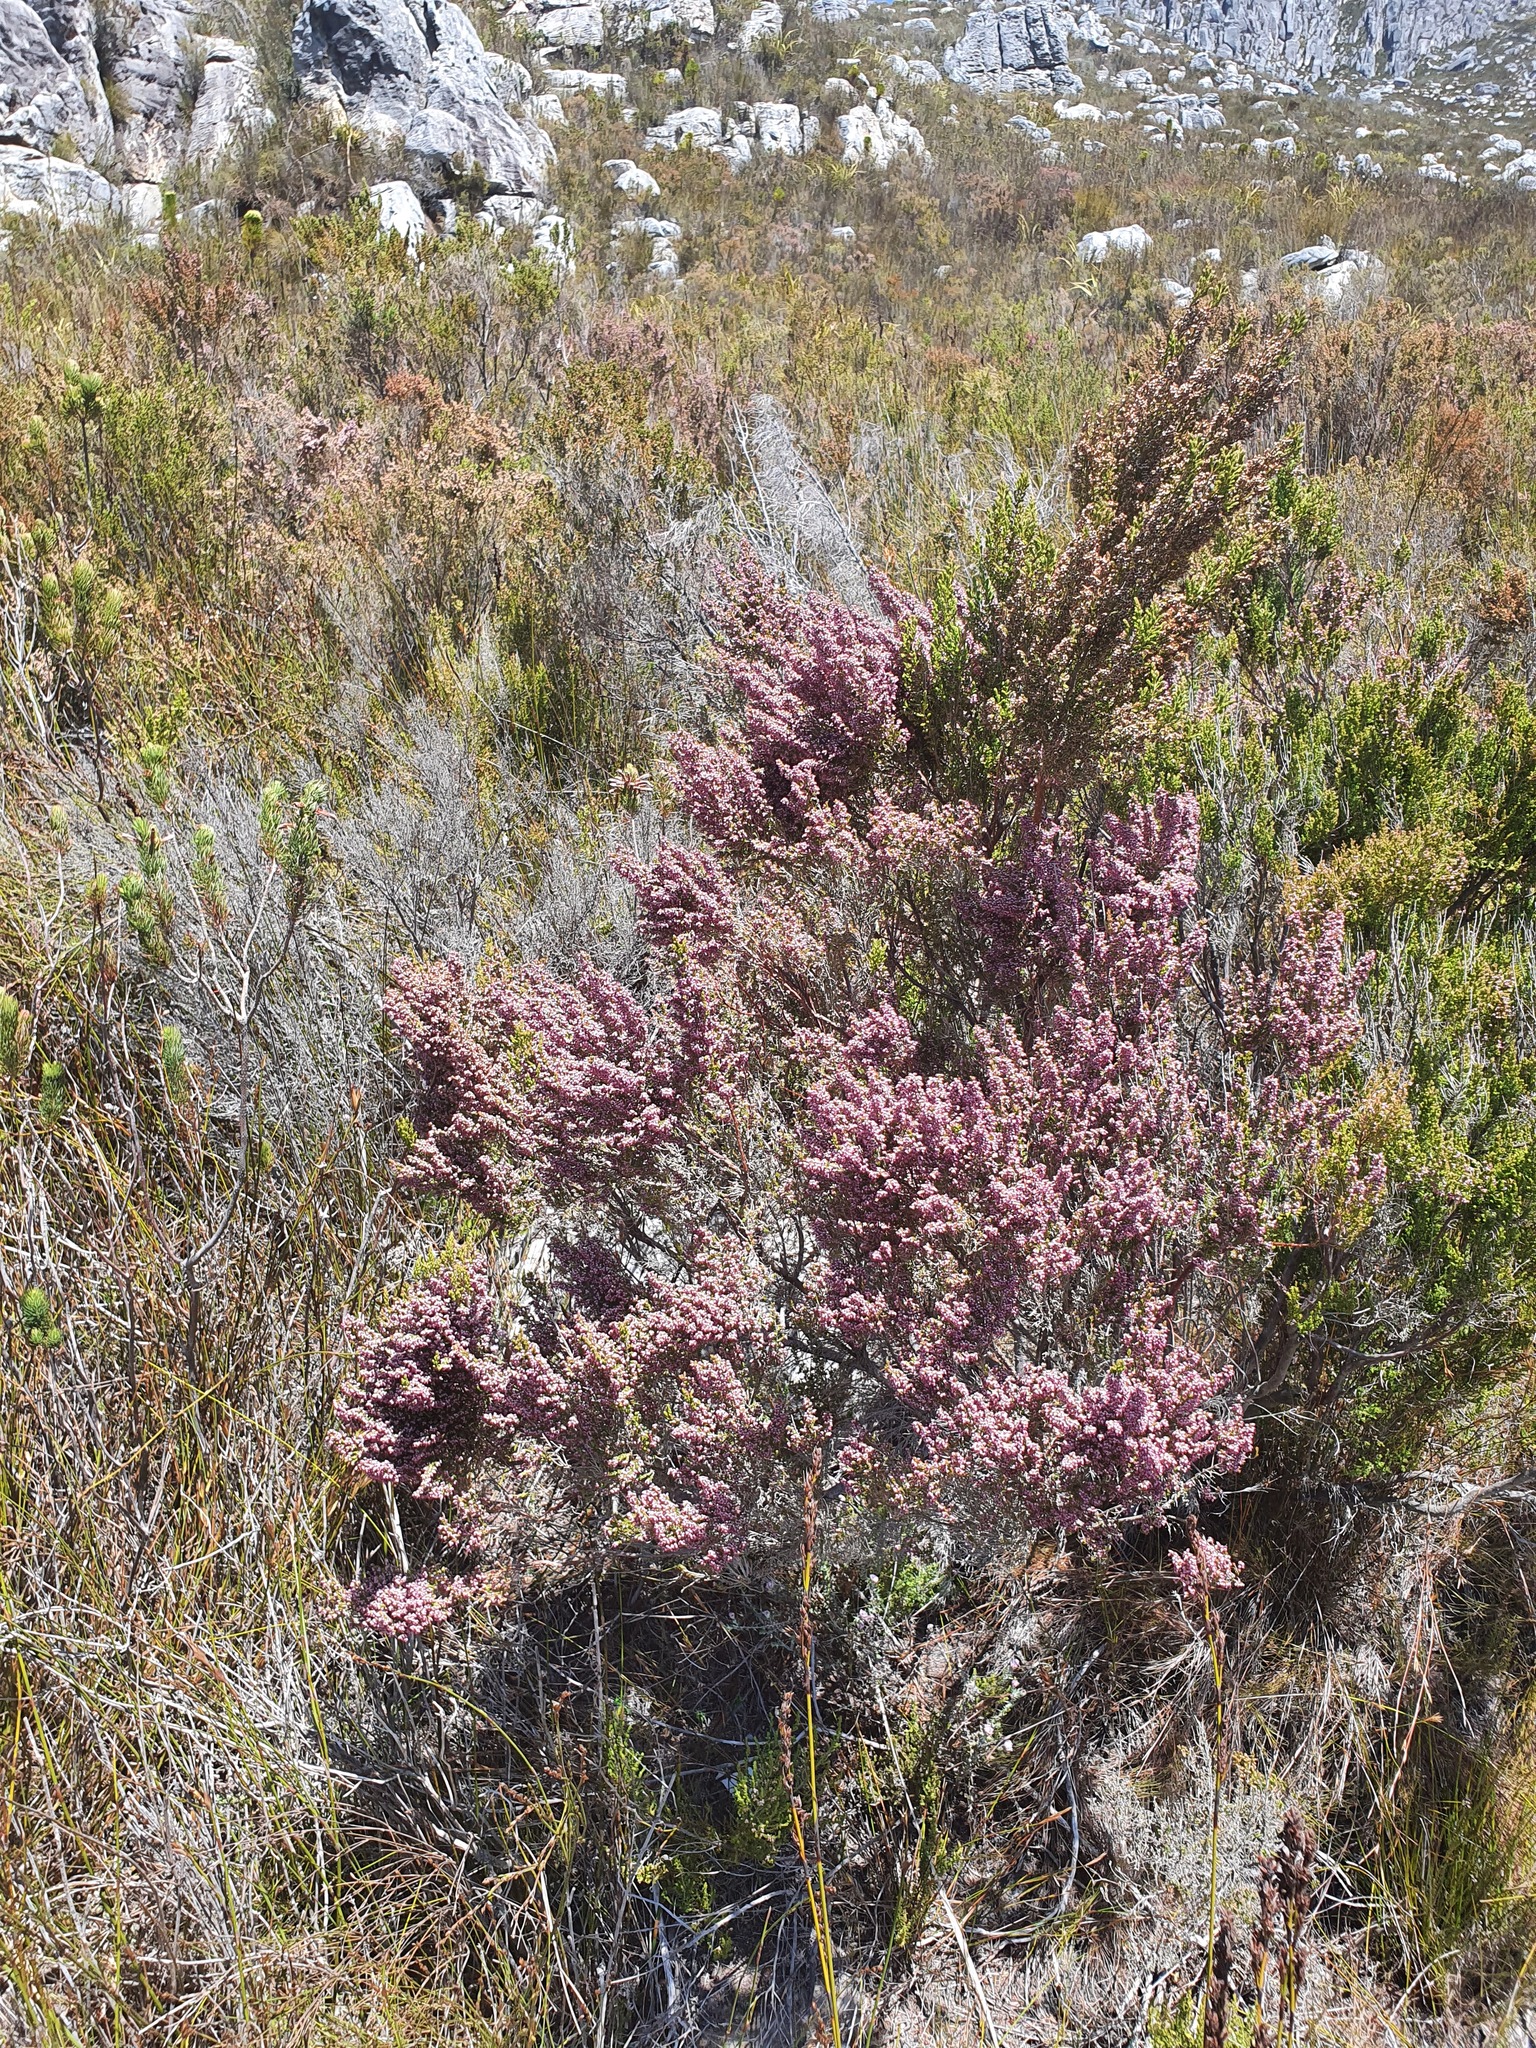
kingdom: Plantae
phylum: Tracheophyta
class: Magnoliopsida
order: Ericales
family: Ericaceae
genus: Erica
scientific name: Erica hispidula
